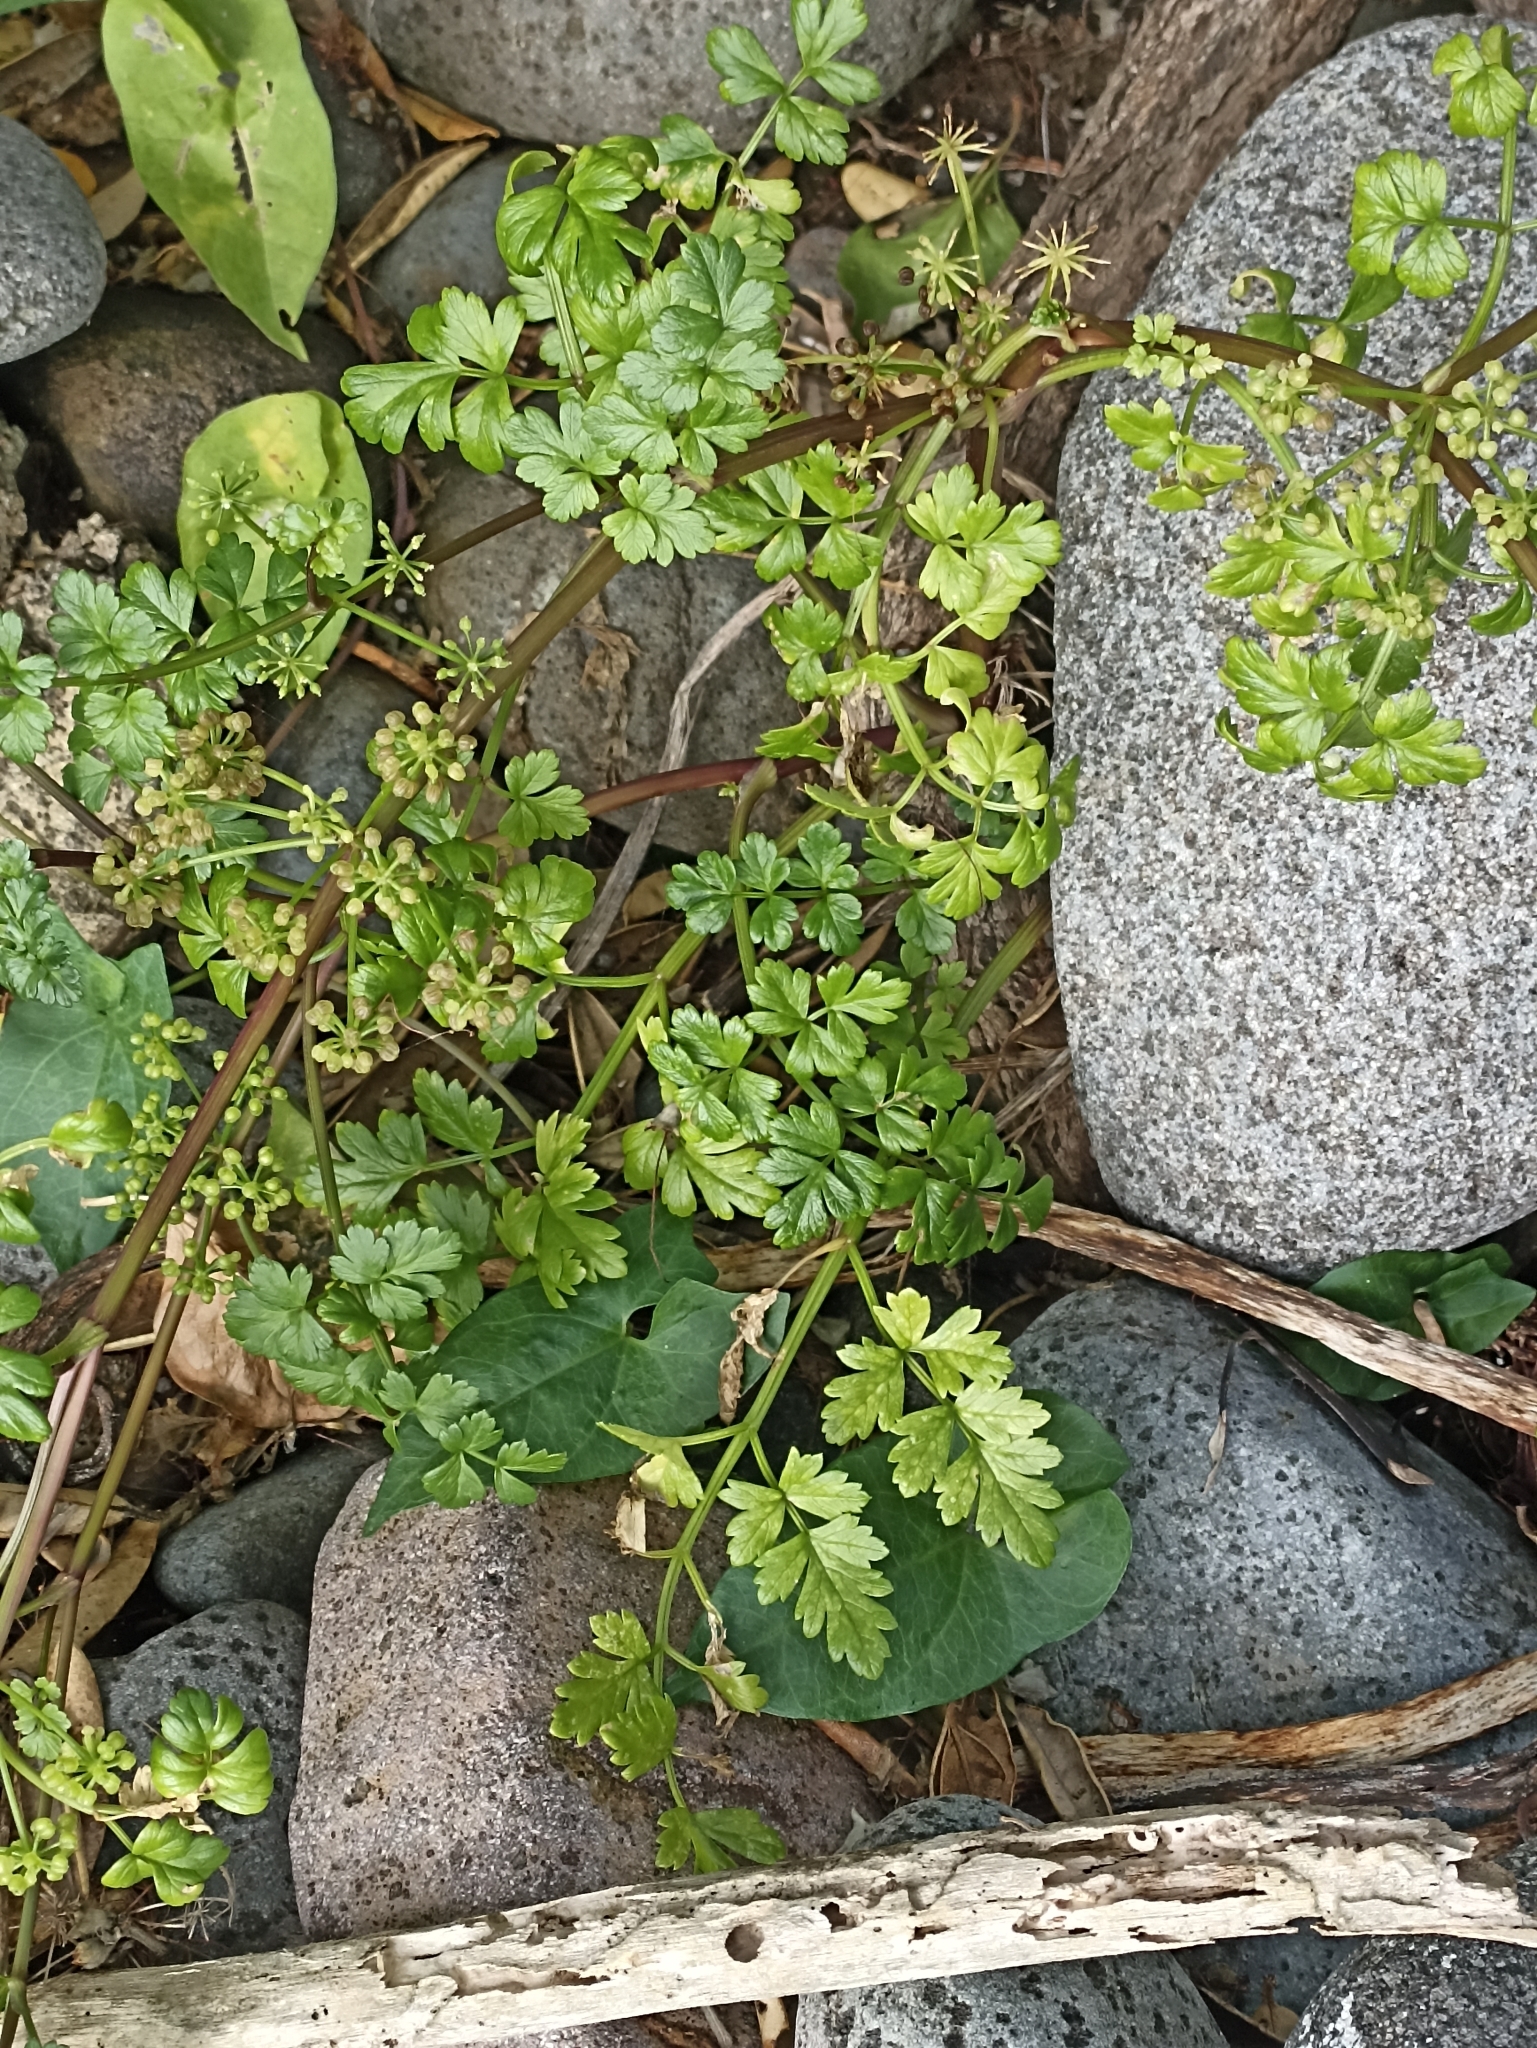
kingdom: Plantae
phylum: Tracheophyta
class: Magnoliopsida
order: Apiales
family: Apiaceae
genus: Apium
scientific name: Apium prostratum
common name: Prostrate marshwort
